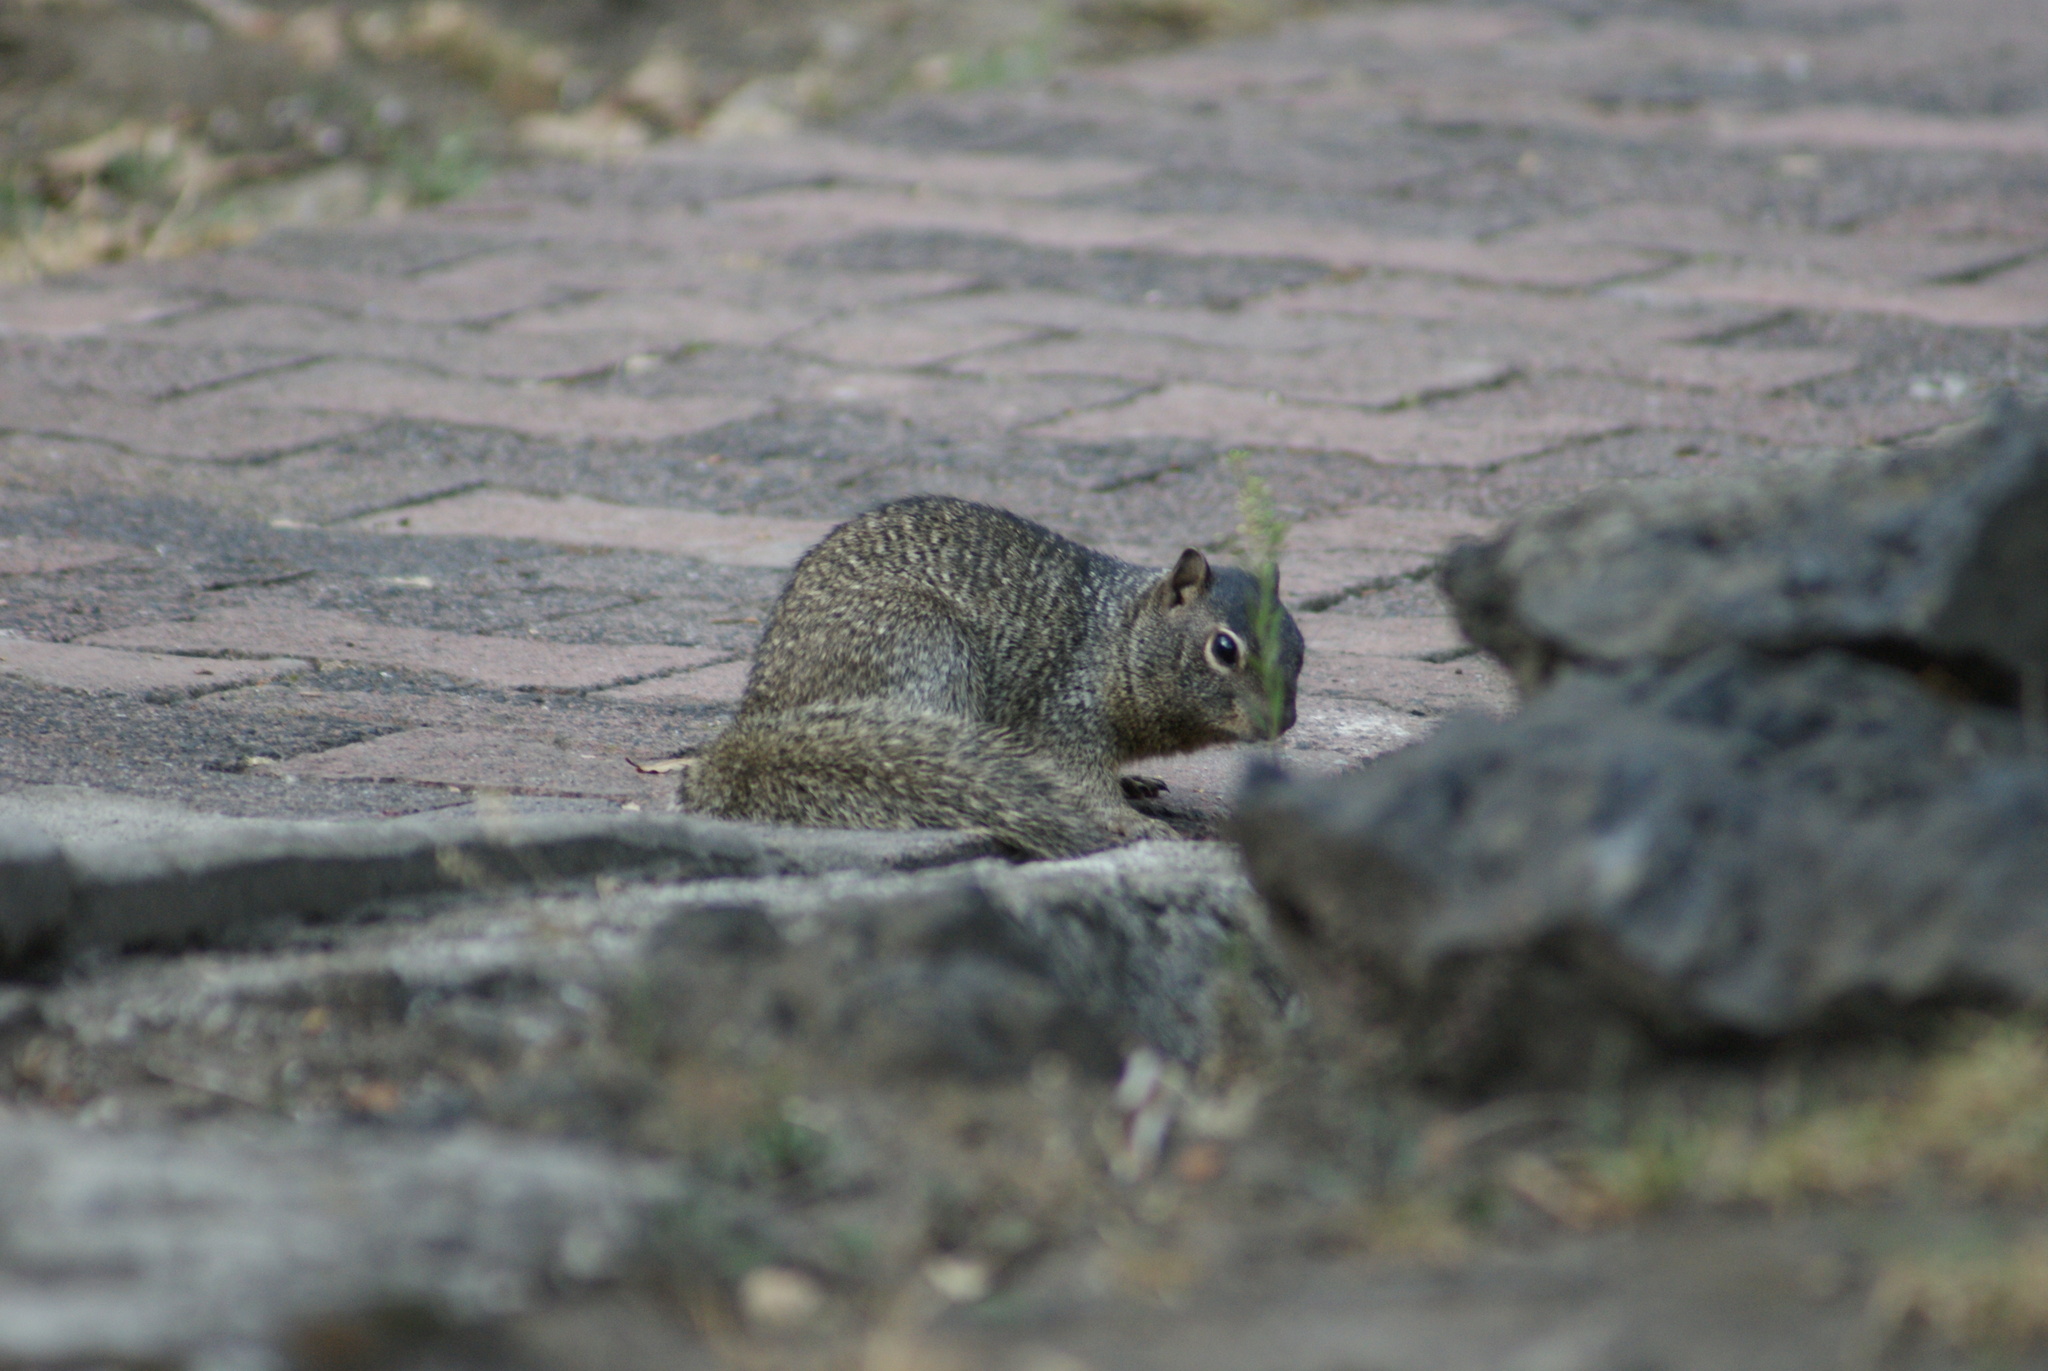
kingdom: Animalia
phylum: Chordata
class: Mammalia
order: Rodentia
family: Sciuridae
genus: Otospermophilus
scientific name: Otospermophilus variegatus
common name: Rock squirrel
